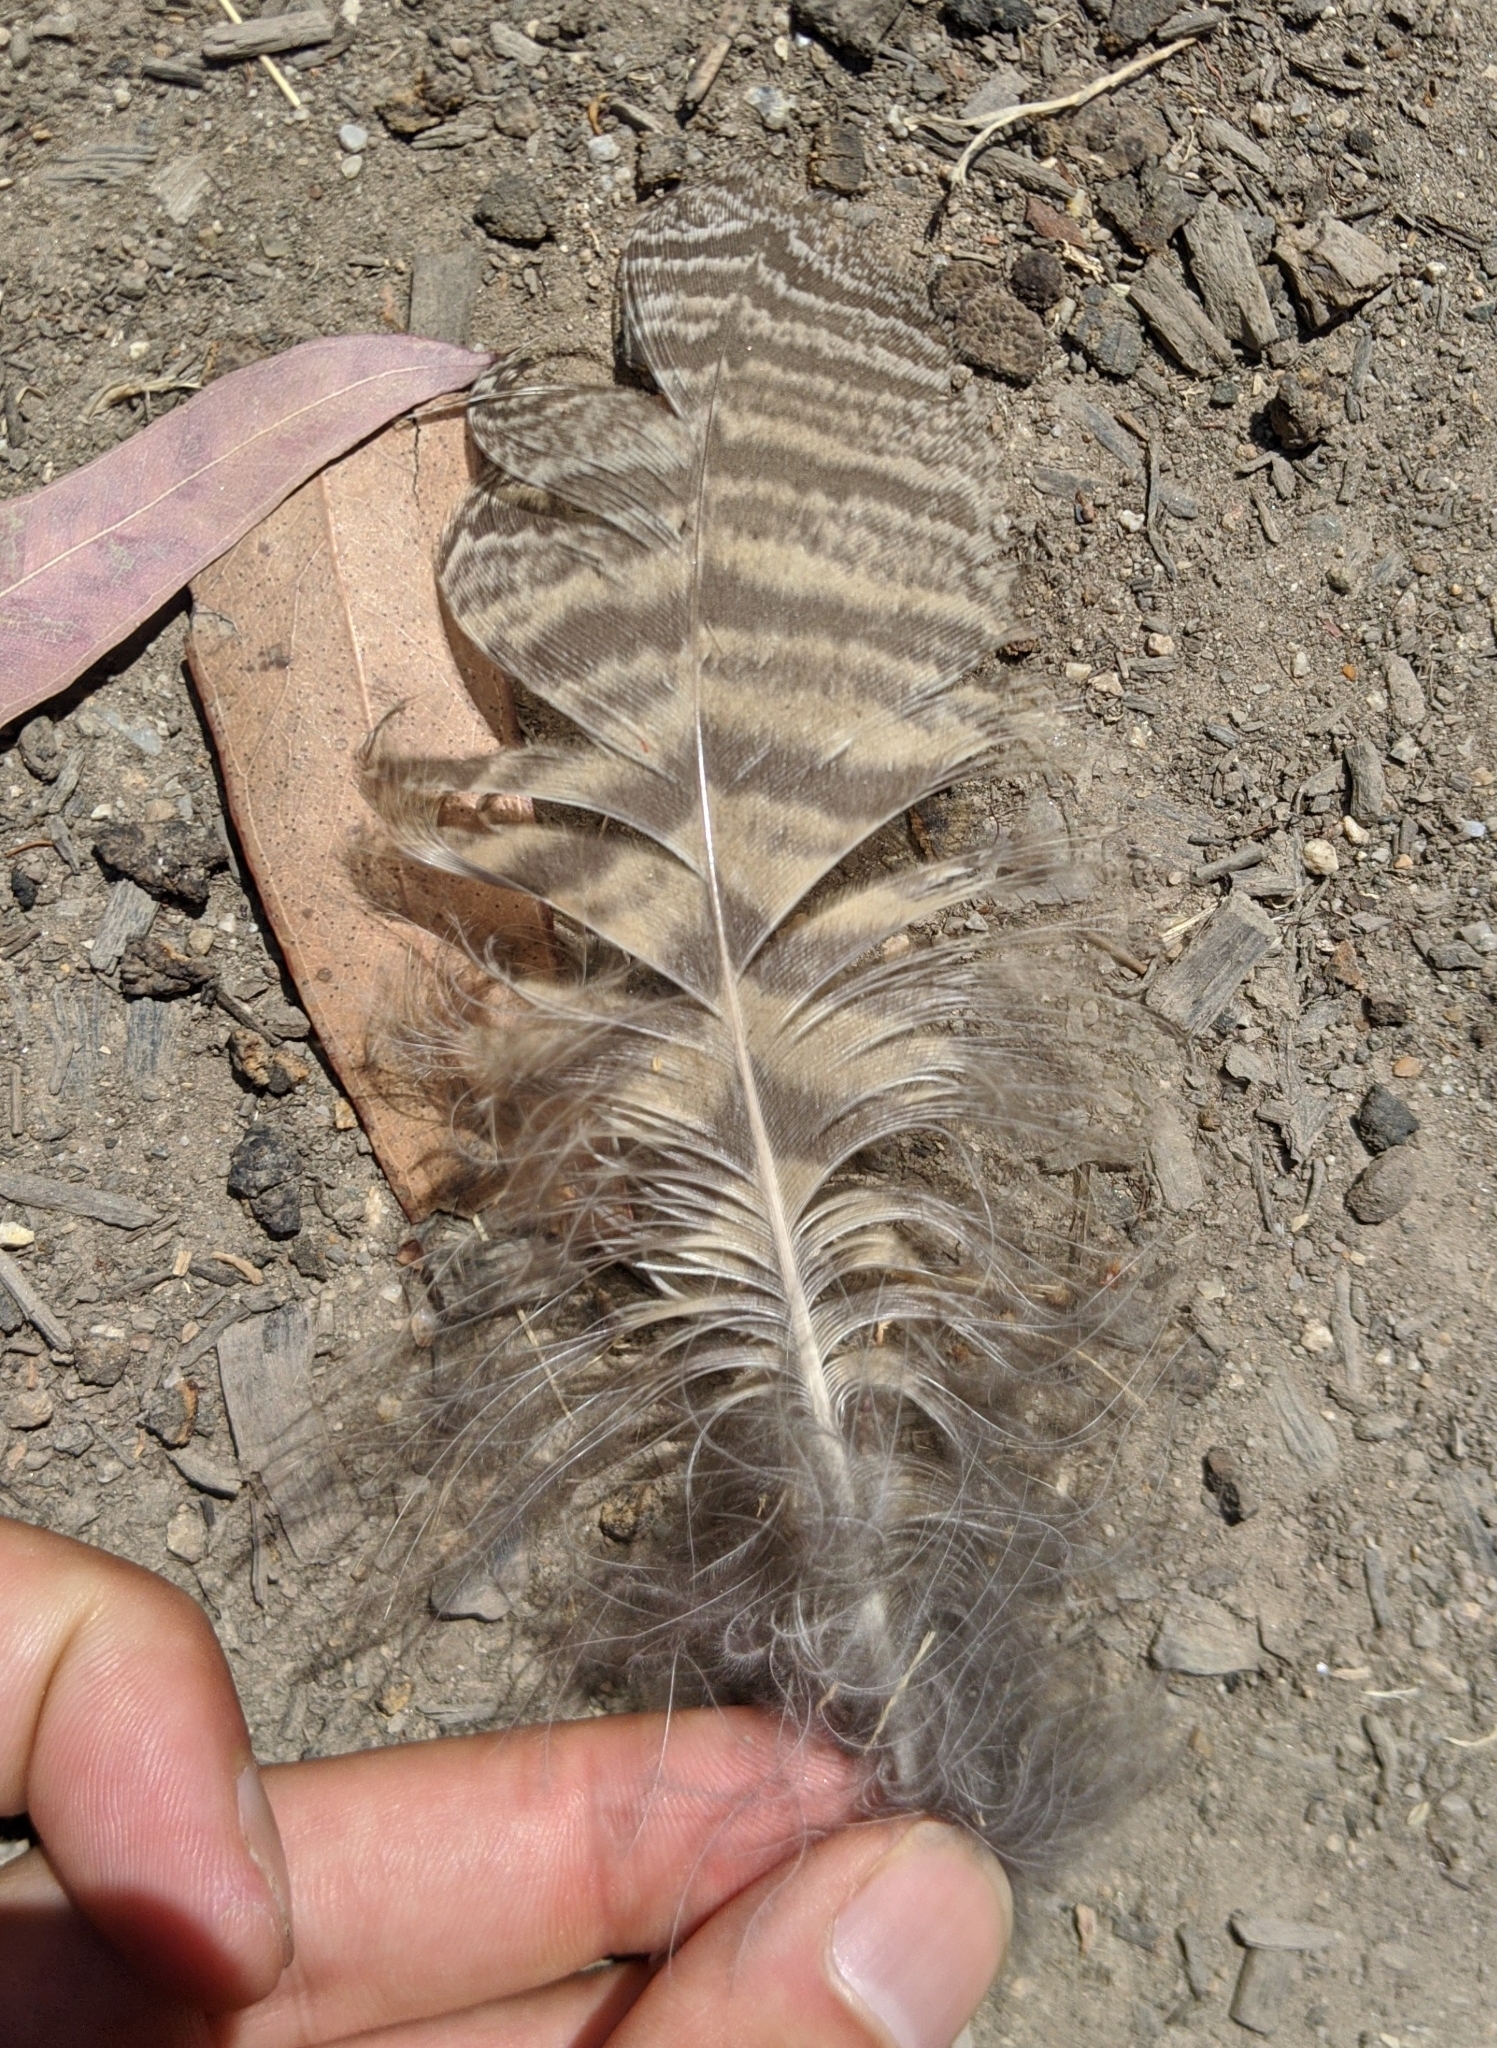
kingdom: Animalia
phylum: Chordata
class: Aves
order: Strigiformes
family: Strigidae
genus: Bubo
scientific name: Bubo virginianus
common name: Great horned owl
